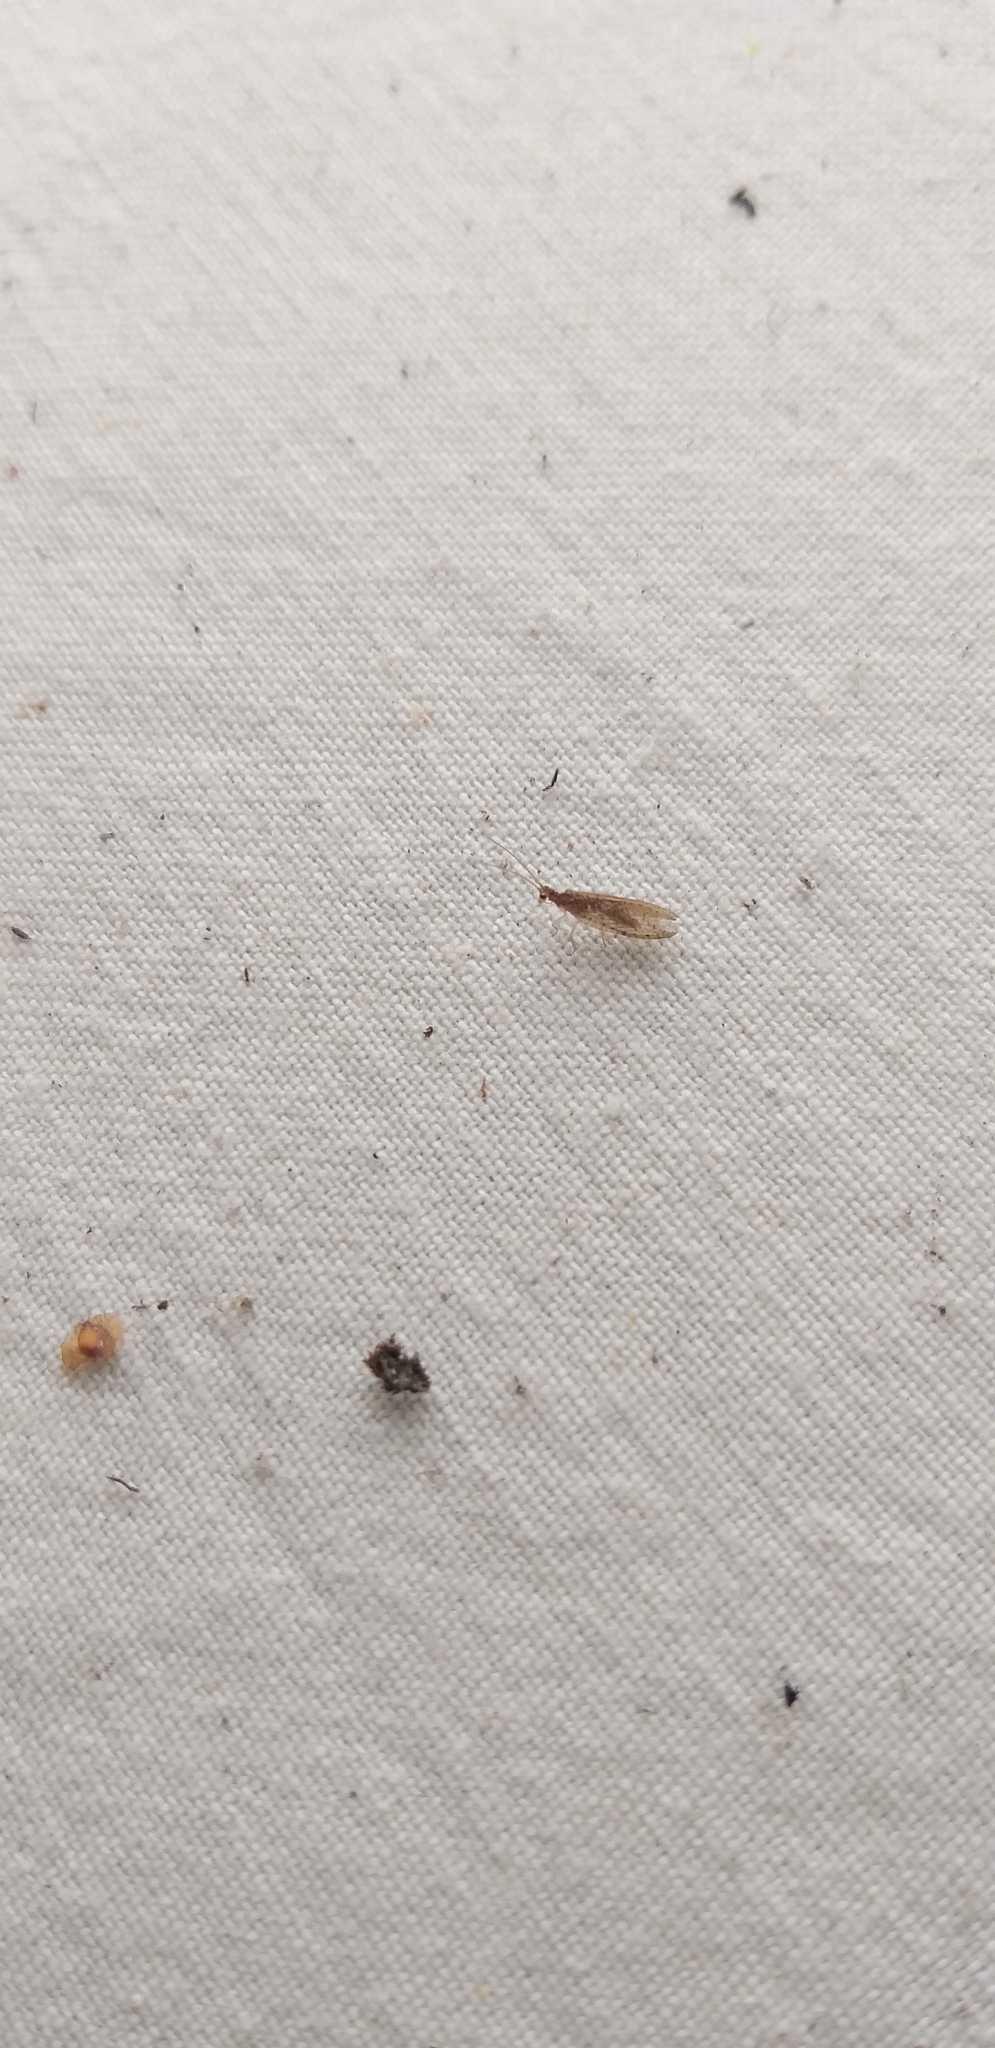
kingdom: Animalia
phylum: Arthropoda
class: Insecta
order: Neuroptera
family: Hemerobiidae
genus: Micromus
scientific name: Micromus tasmaniae
